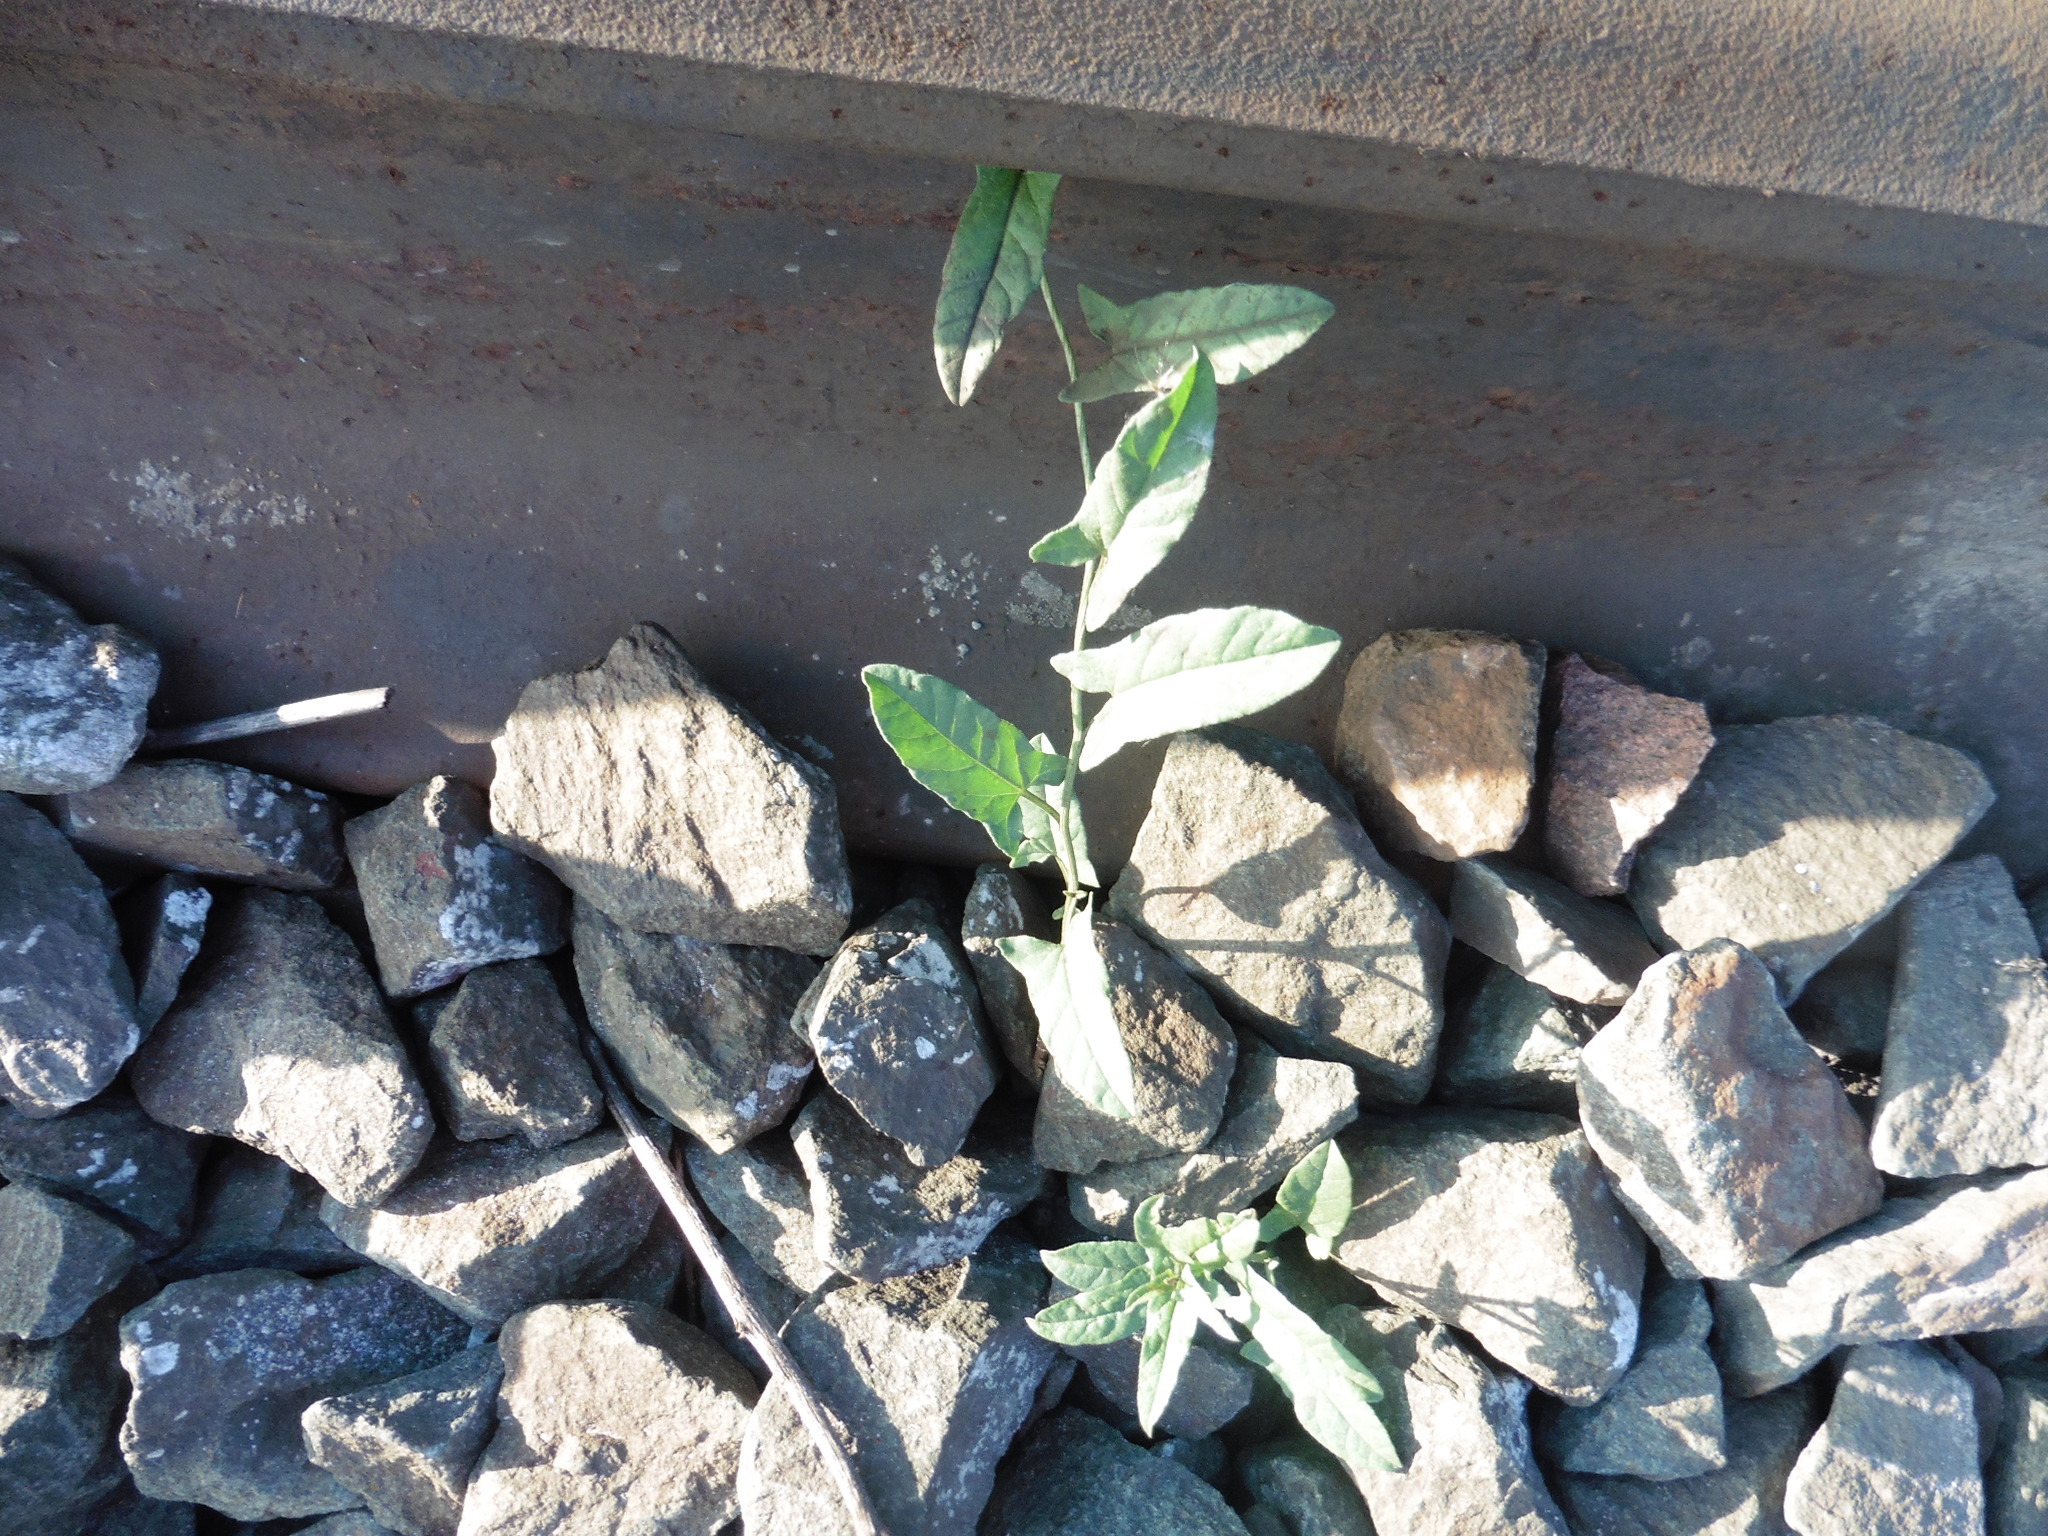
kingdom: Plantae
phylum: Tracheophyta
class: Magnoliopsida
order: Solanales
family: Convolvulaceae
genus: Convolvulus
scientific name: Convolvulus arvensis
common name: Field bindweed
